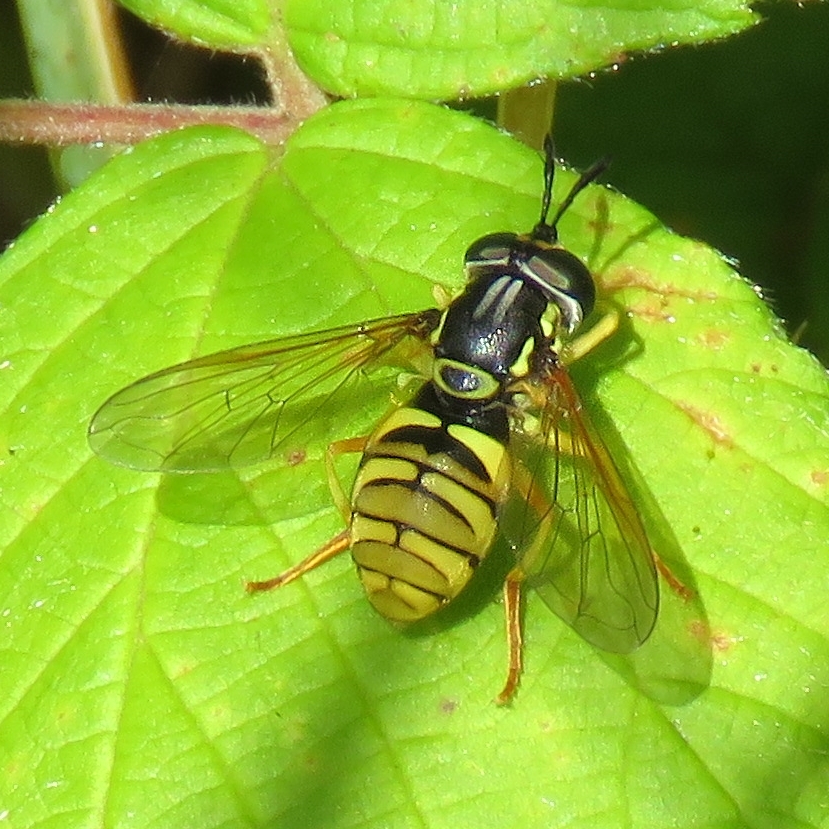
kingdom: Animalia
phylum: Arthropoda
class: Insecta
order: Diptera
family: Syrphidae
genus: Chrysotoxum
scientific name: Chrysotoxum verralli
